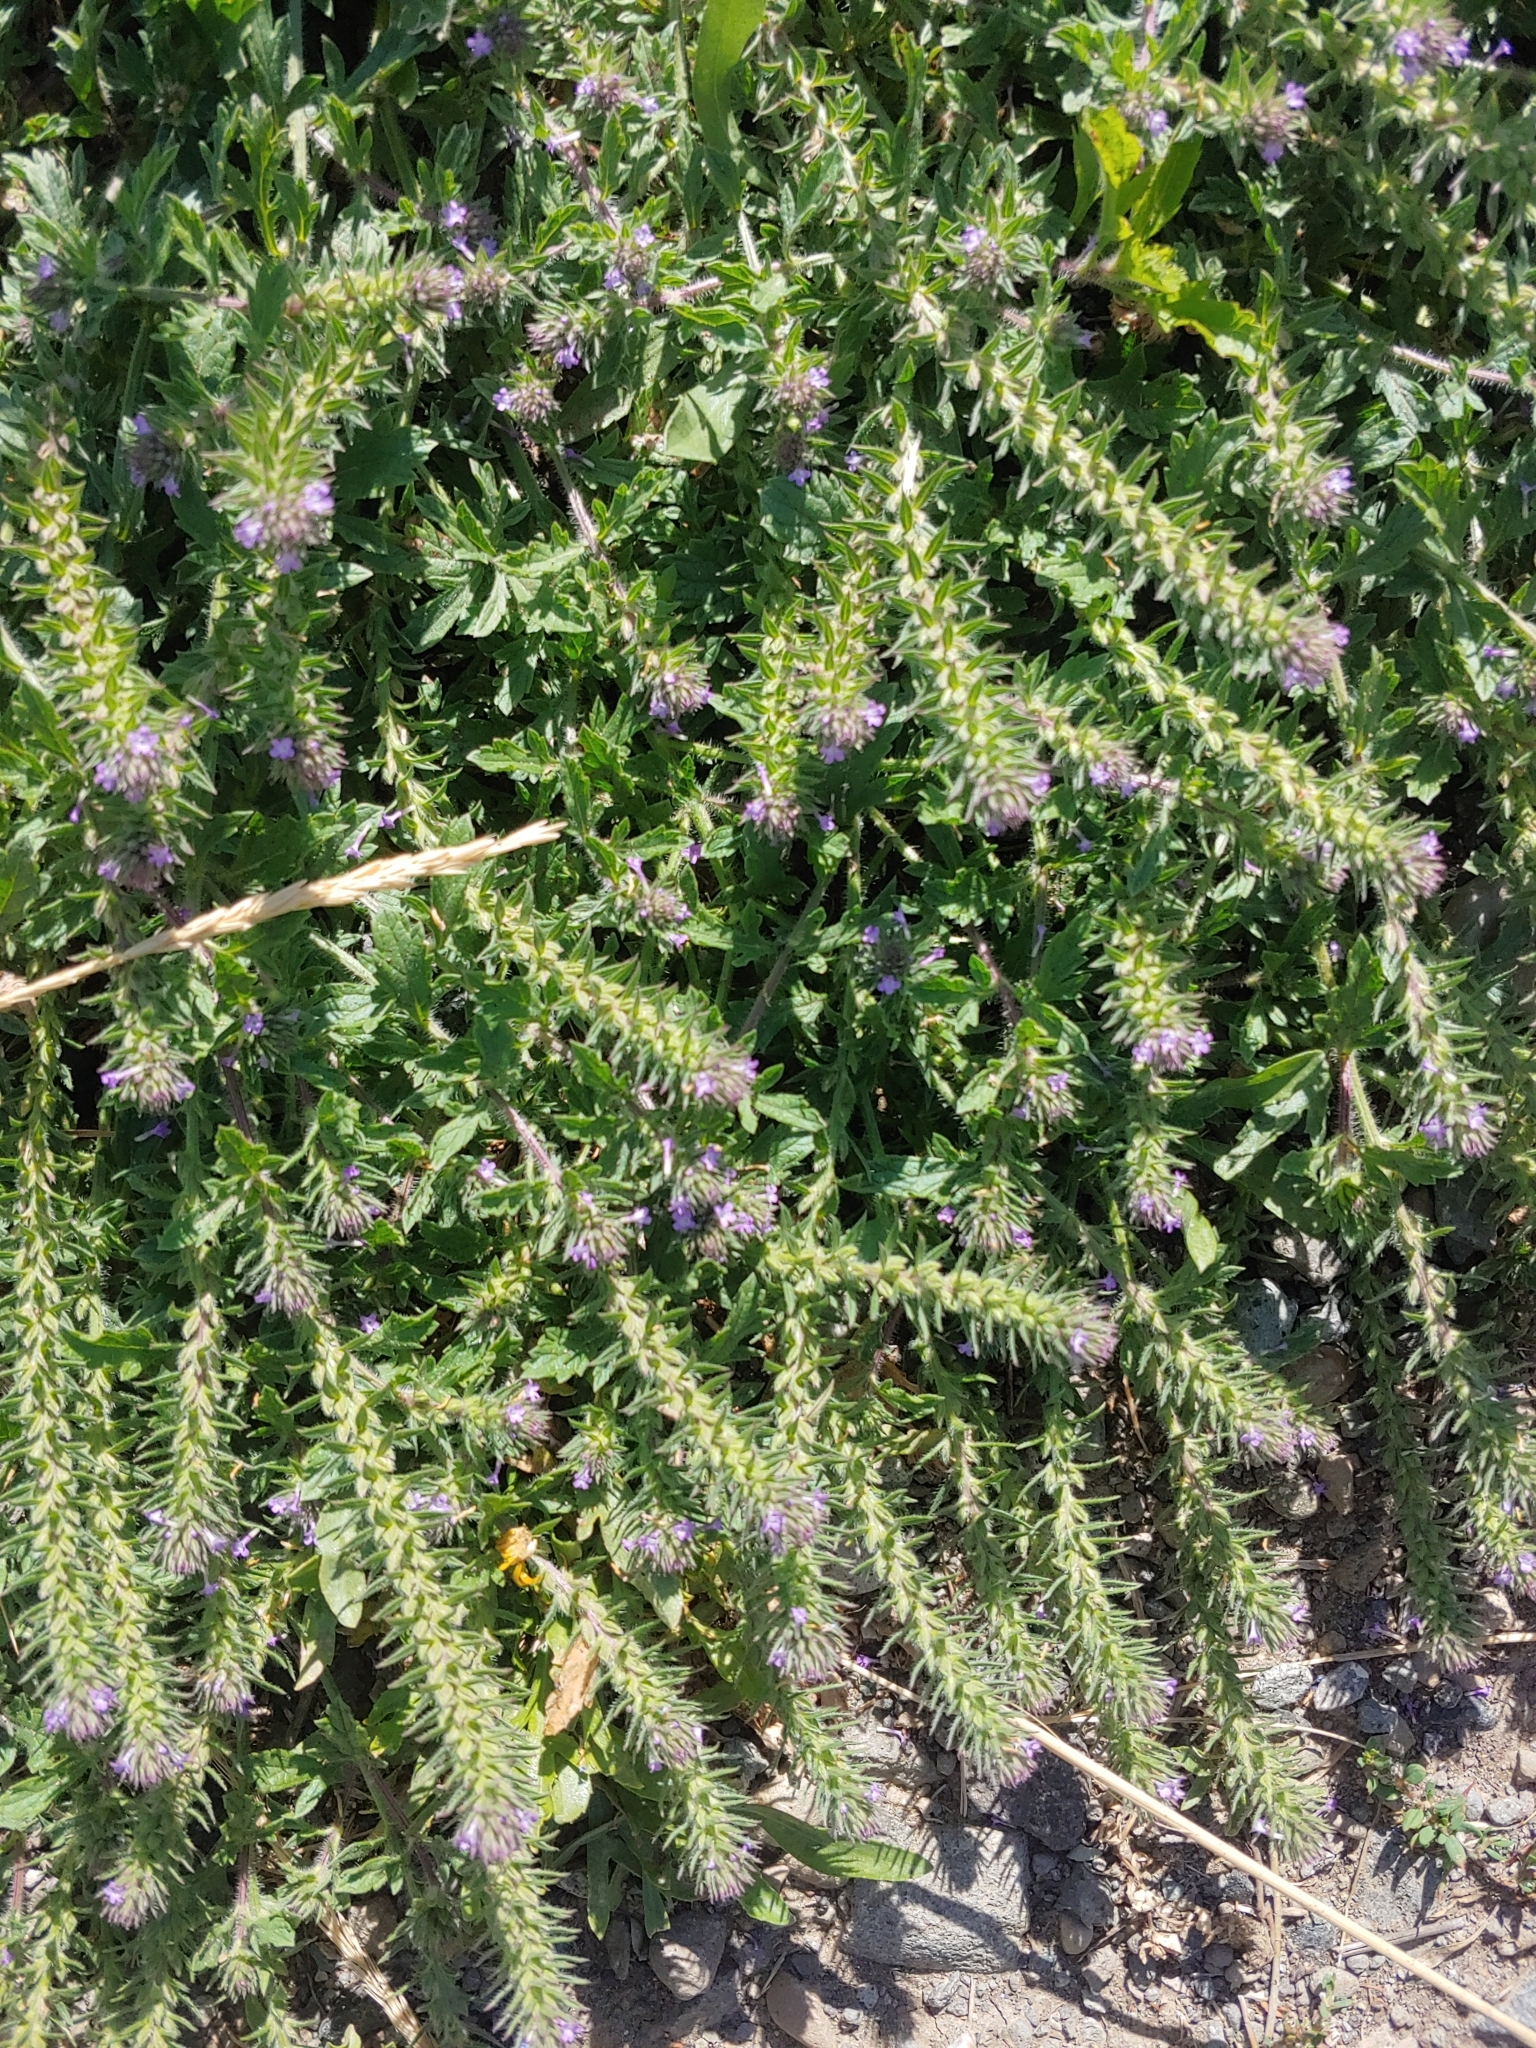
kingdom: Plantae
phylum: Tracheophyta
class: Magnoliopsida
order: Lamiales
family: Verbenaceae
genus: Verbena
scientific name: Verbena bracteata
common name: Bracted vervain
